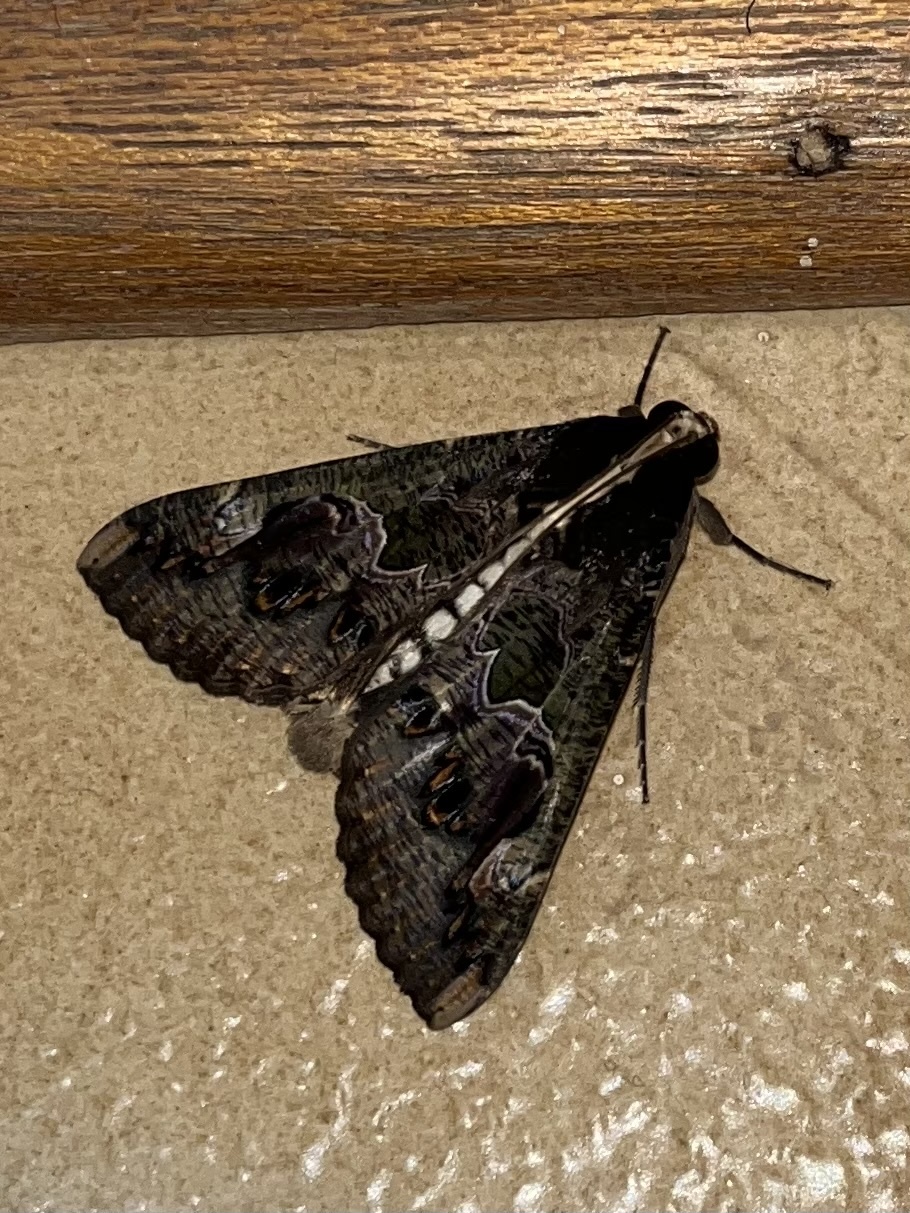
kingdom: Animalia
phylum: Arthropoda
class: Insecta
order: Lepidoptera
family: Erebidae
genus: Sphingomorpha
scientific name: Sphingomorpha chlorea
